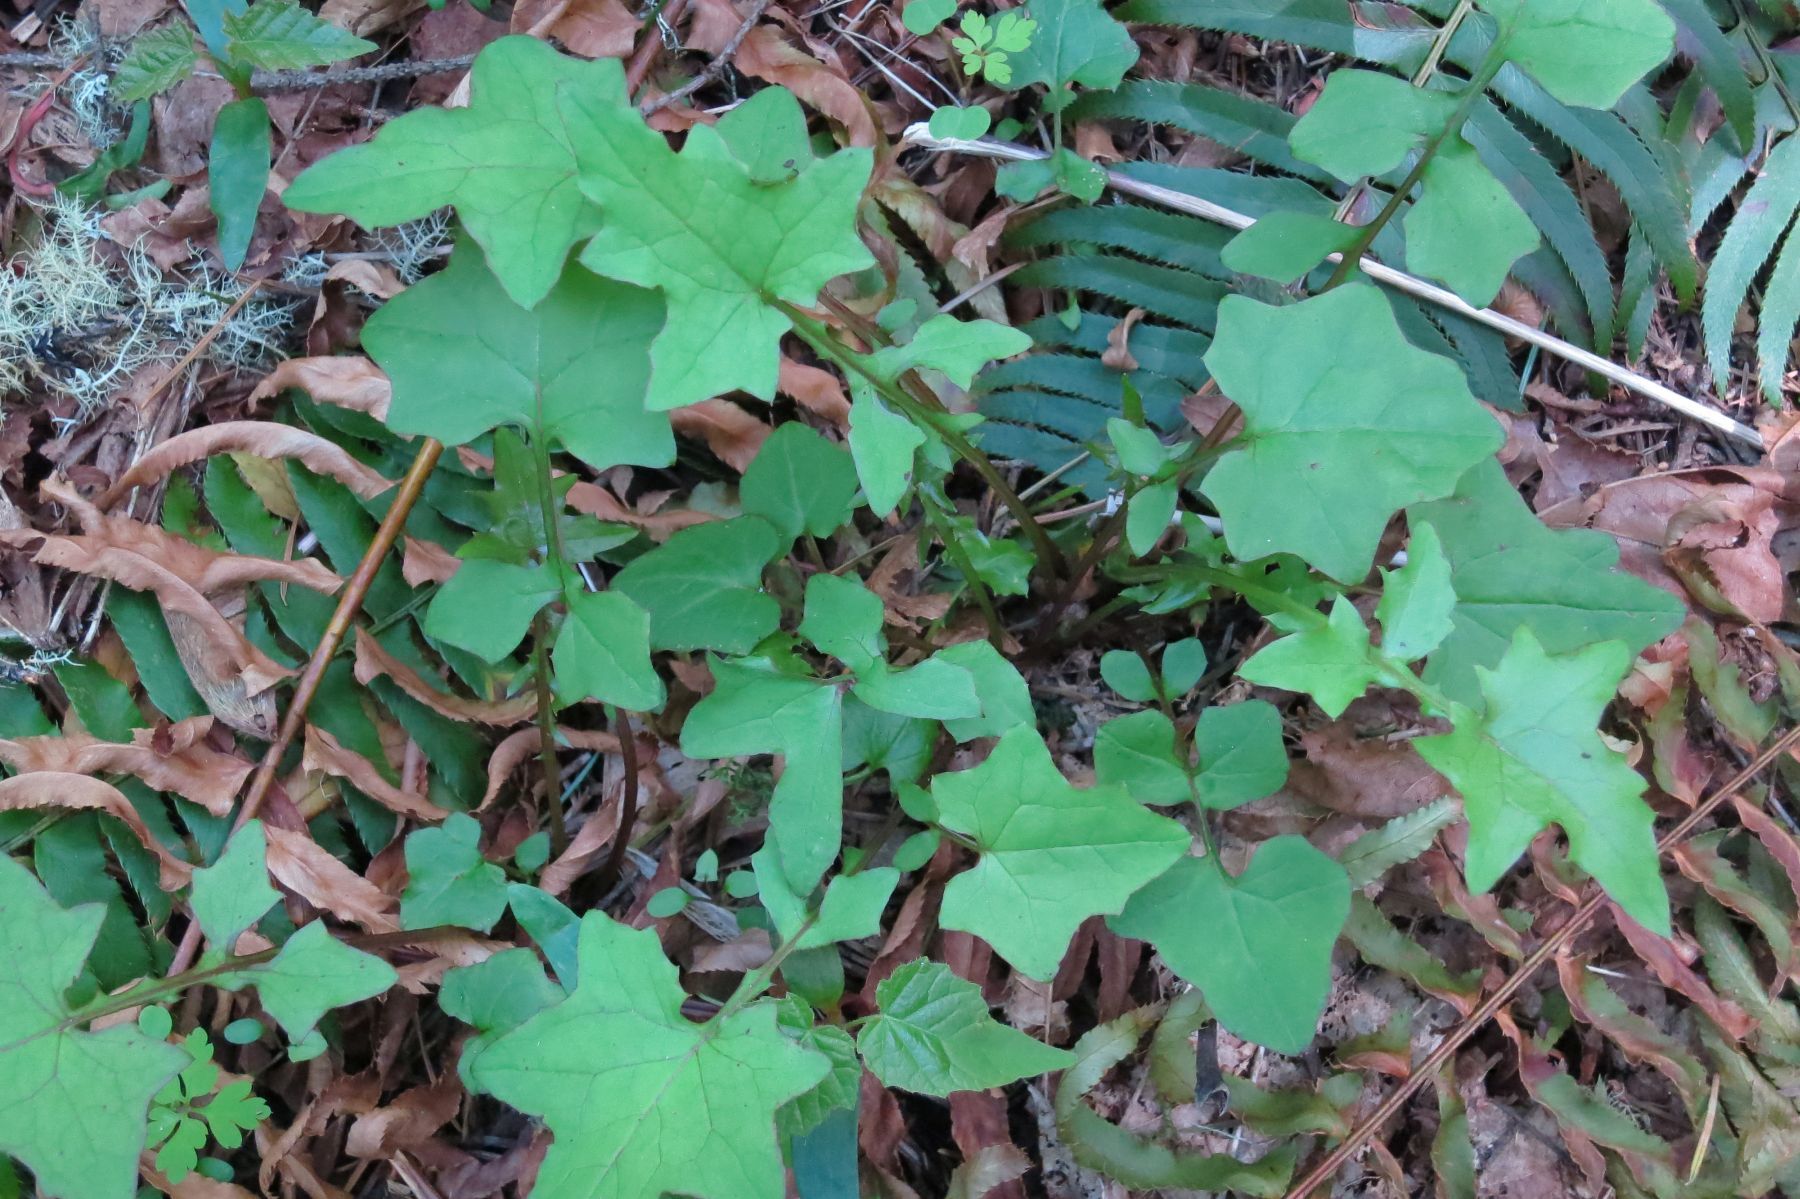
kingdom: Plantae
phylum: Tracheophyta
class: Magnoliopsida
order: Asterales
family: Asteraceae
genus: Mycelis
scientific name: Mycelis muralis
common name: Wall lettuce
